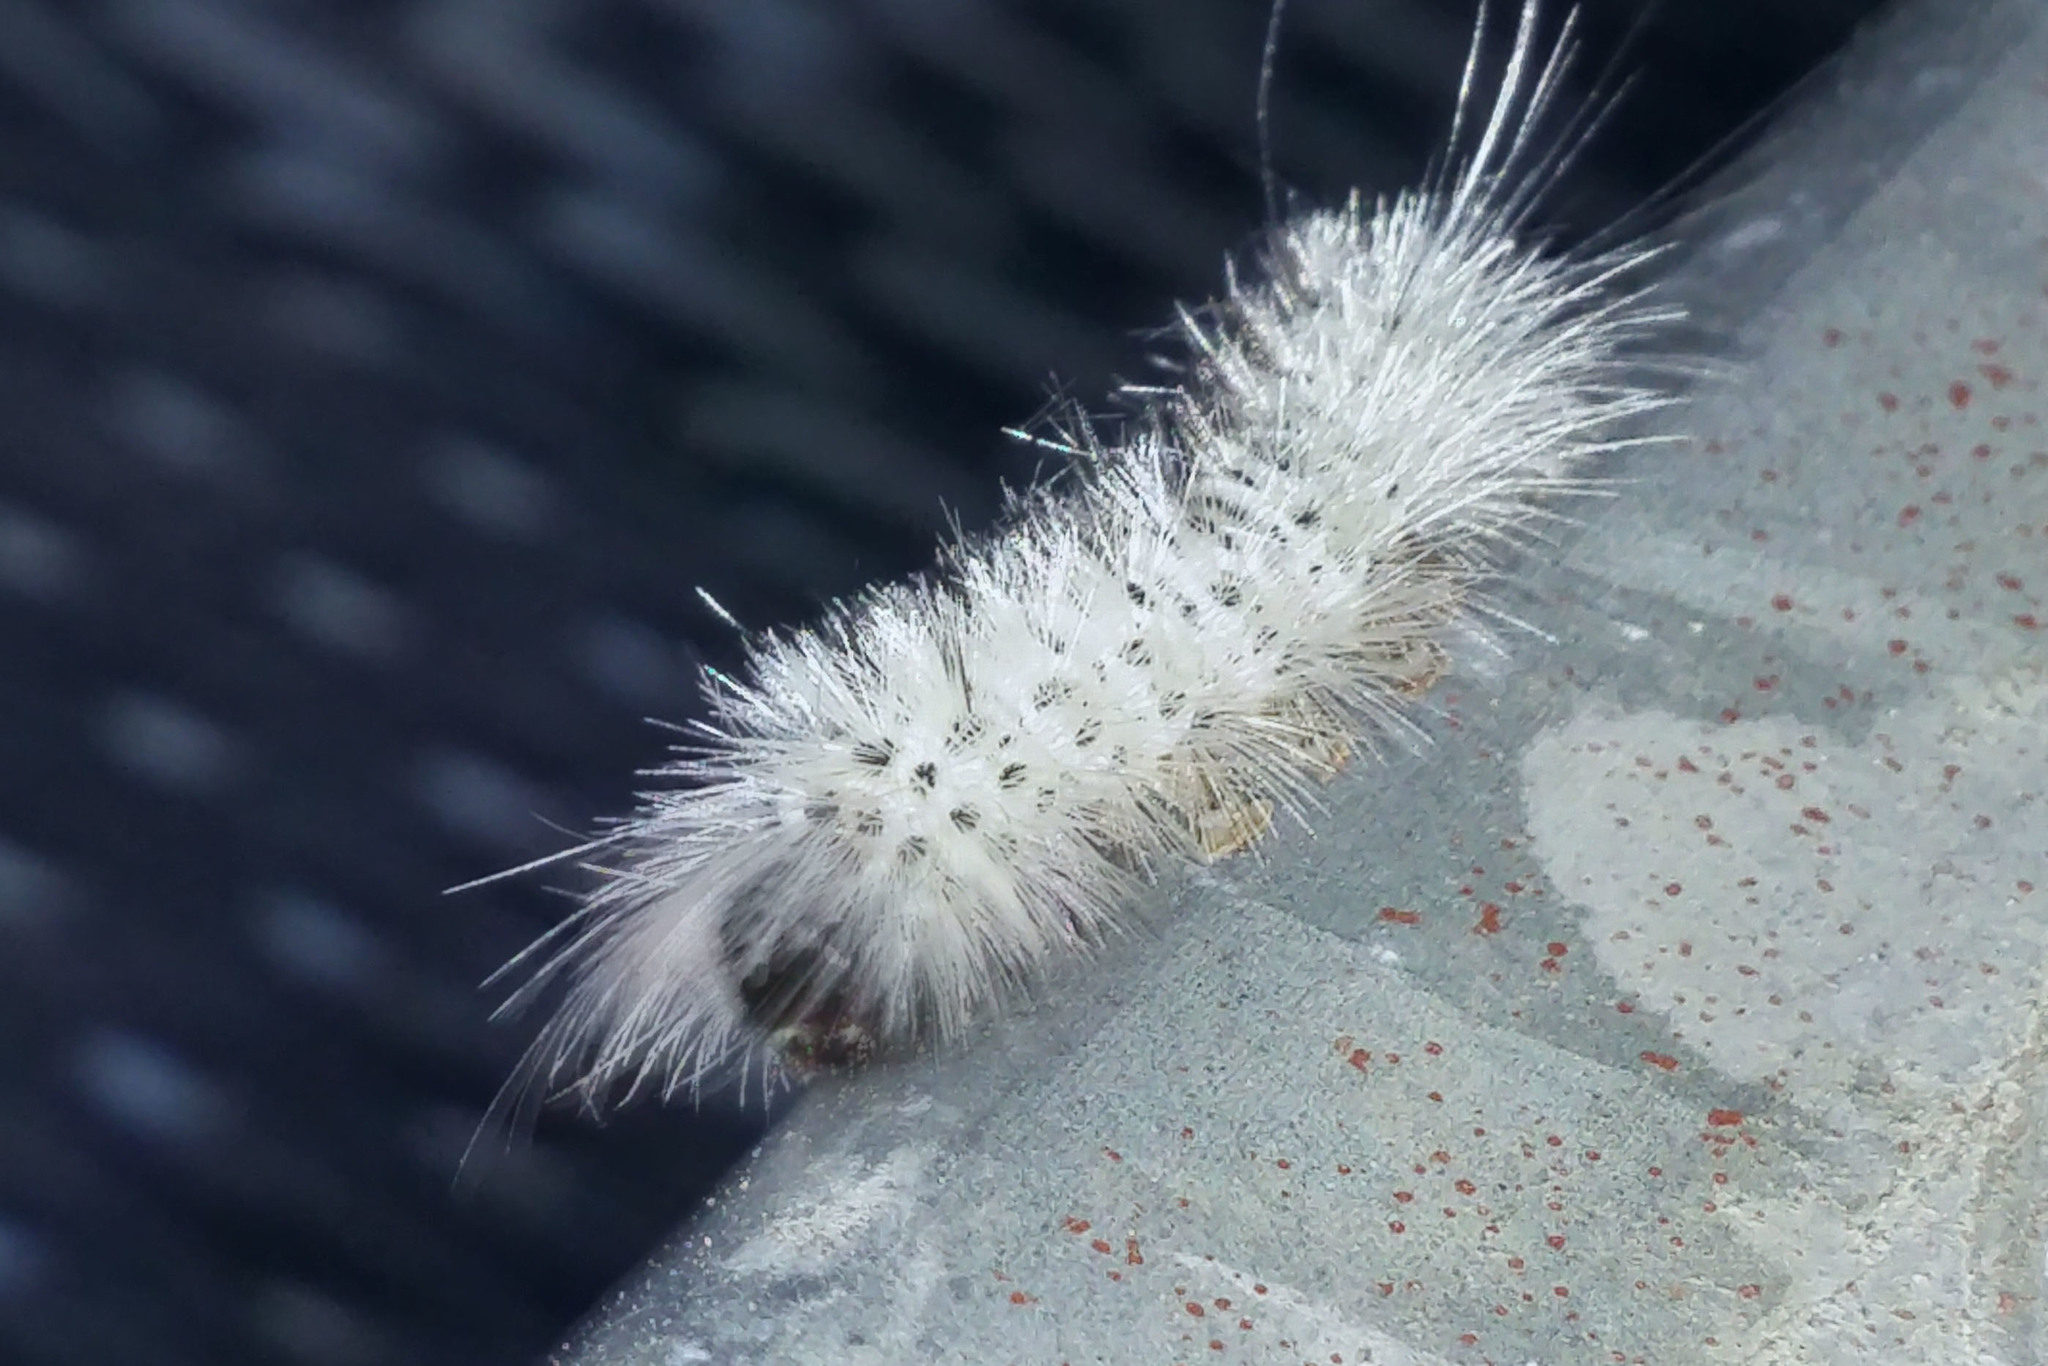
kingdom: Animalia
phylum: Arthropoda
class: Insecta
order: Lepidoptera
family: Erebidae
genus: Lophocampa
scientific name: Lophocampa caryae
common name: Hickory tussock moth
